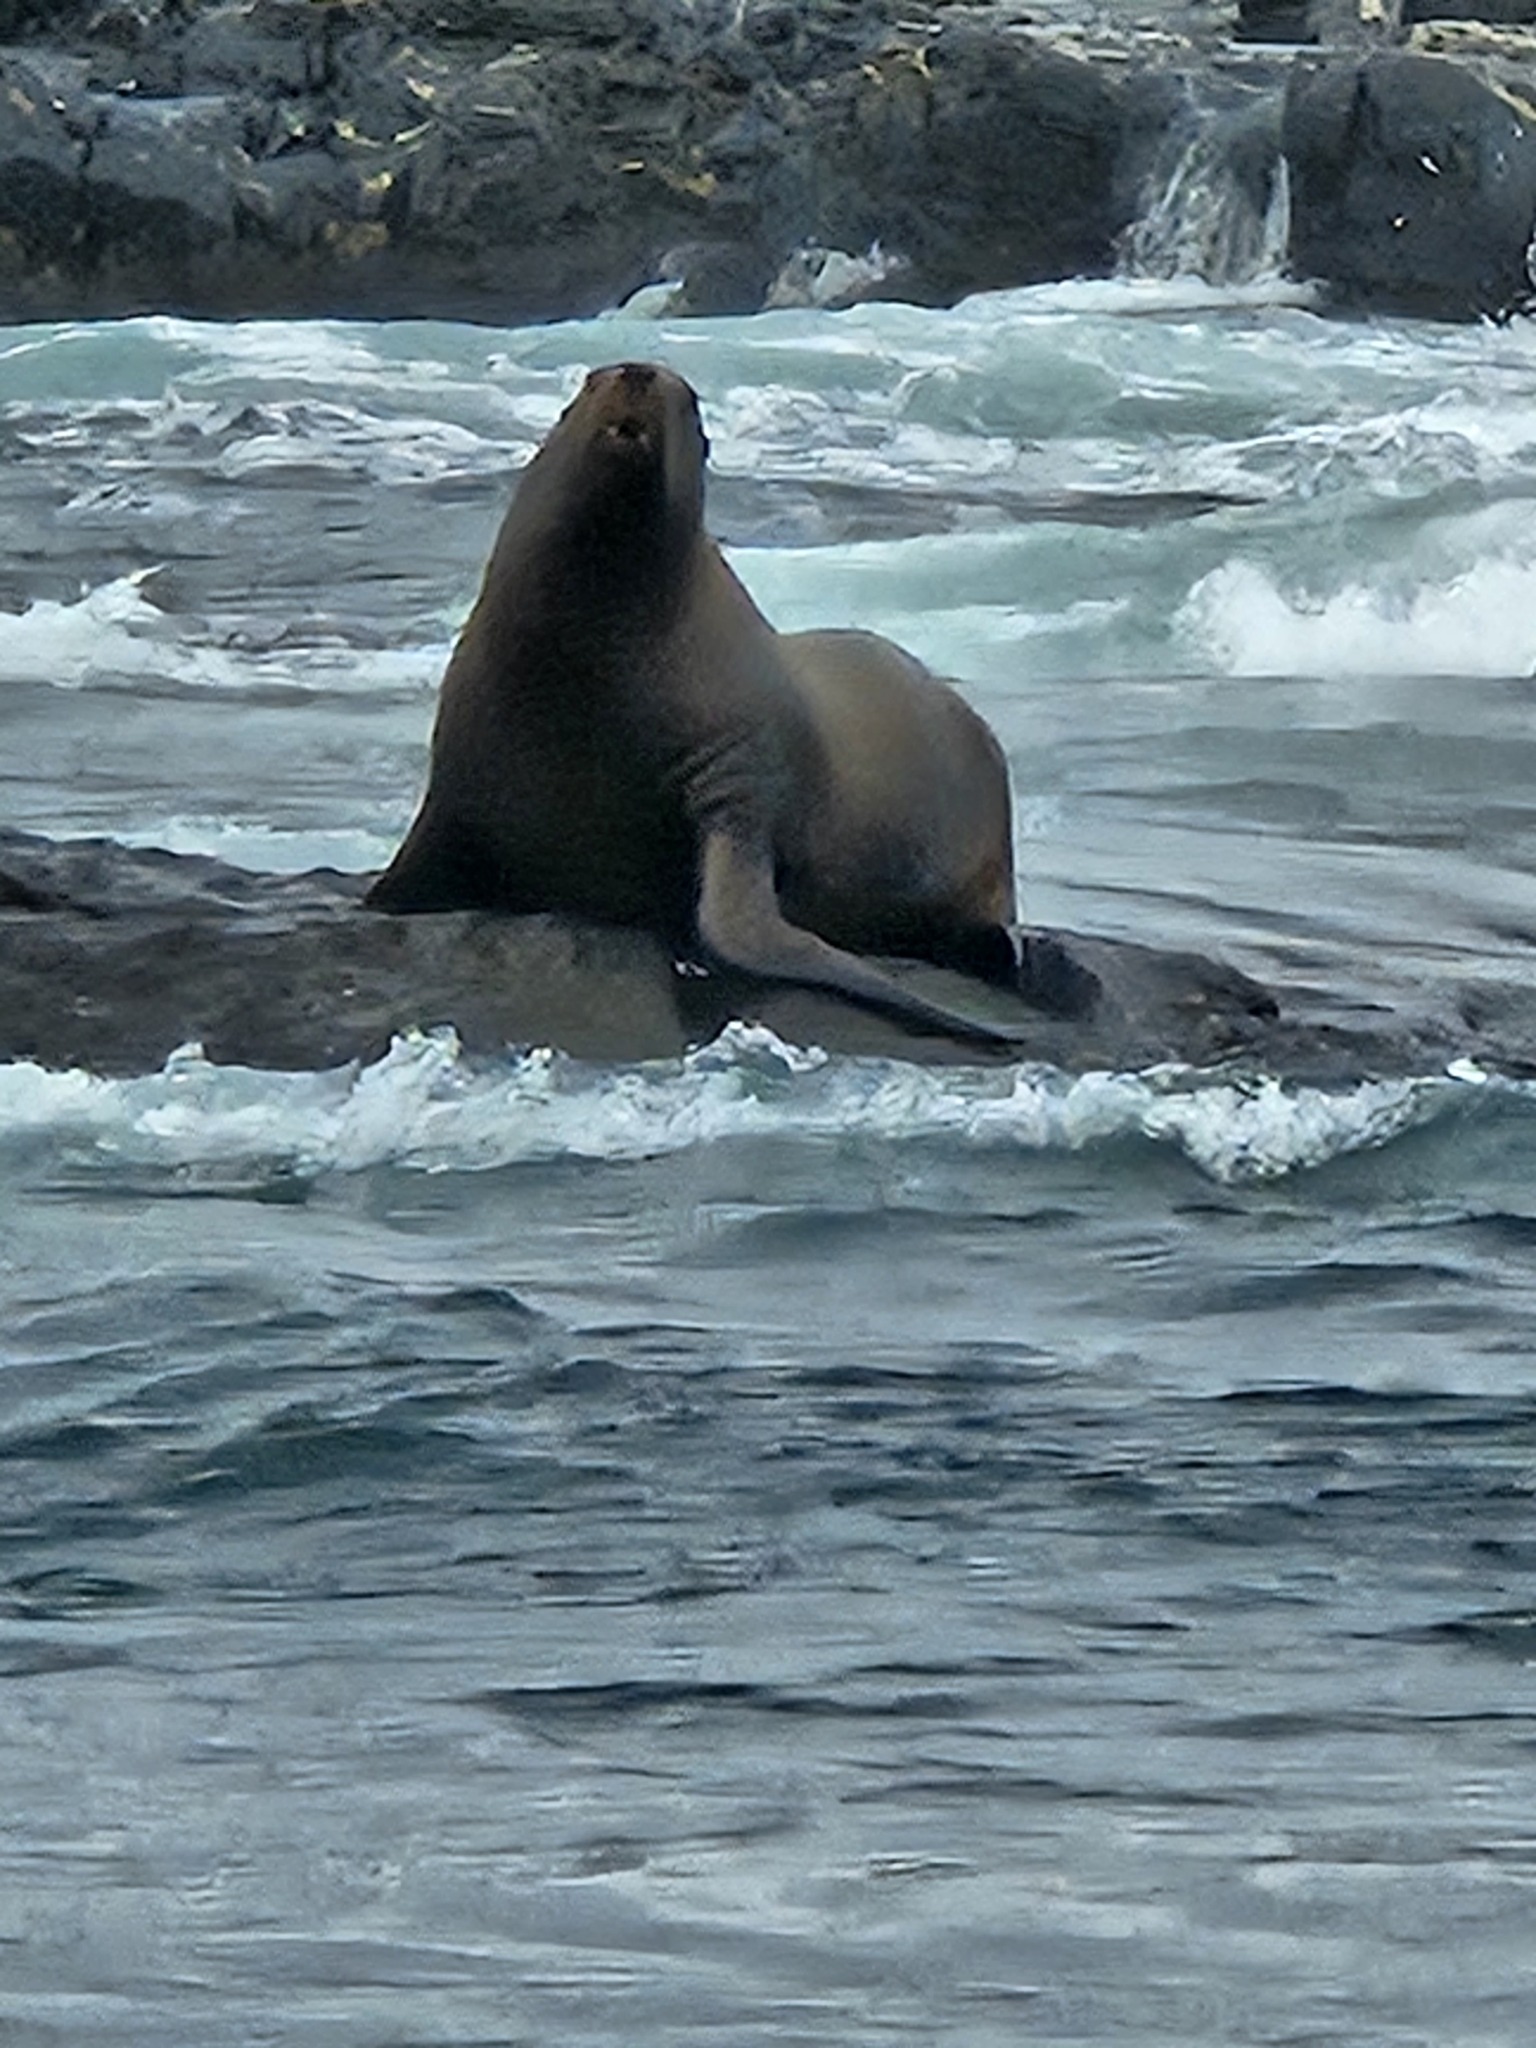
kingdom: Animalia
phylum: Chordata
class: Mammalia
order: Carnivora
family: Otariidae
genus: Eumetopias
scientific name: Eumetopias jubatus
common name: Steller sea lion
